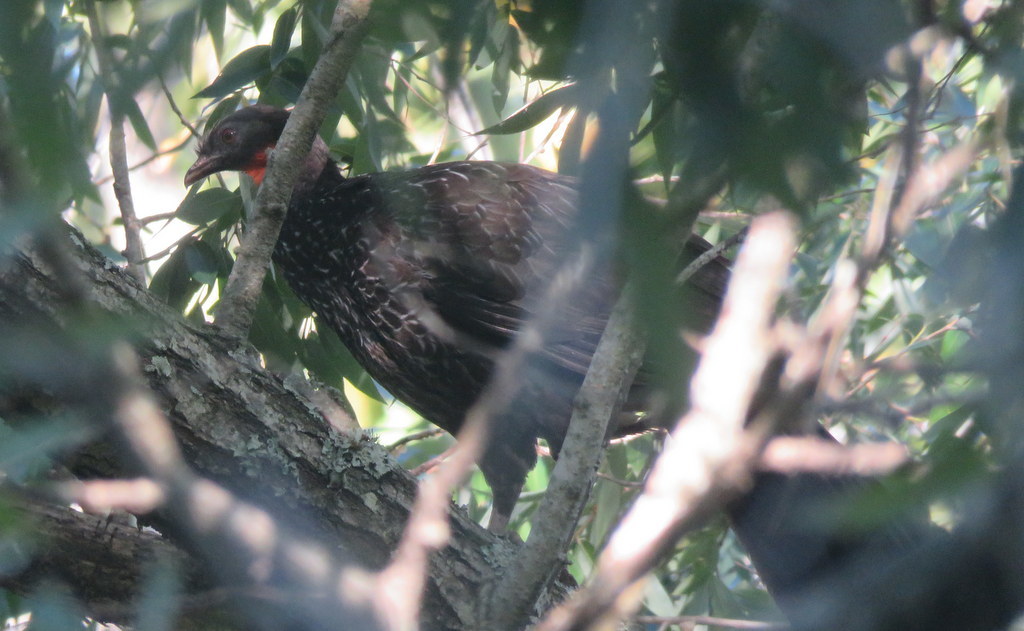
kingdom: Animalia
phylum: Chordata
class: Aves
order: Galliformes
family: Cracidae
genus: Penelope
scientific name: Penelope obscura
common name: Dusky-legged guan
